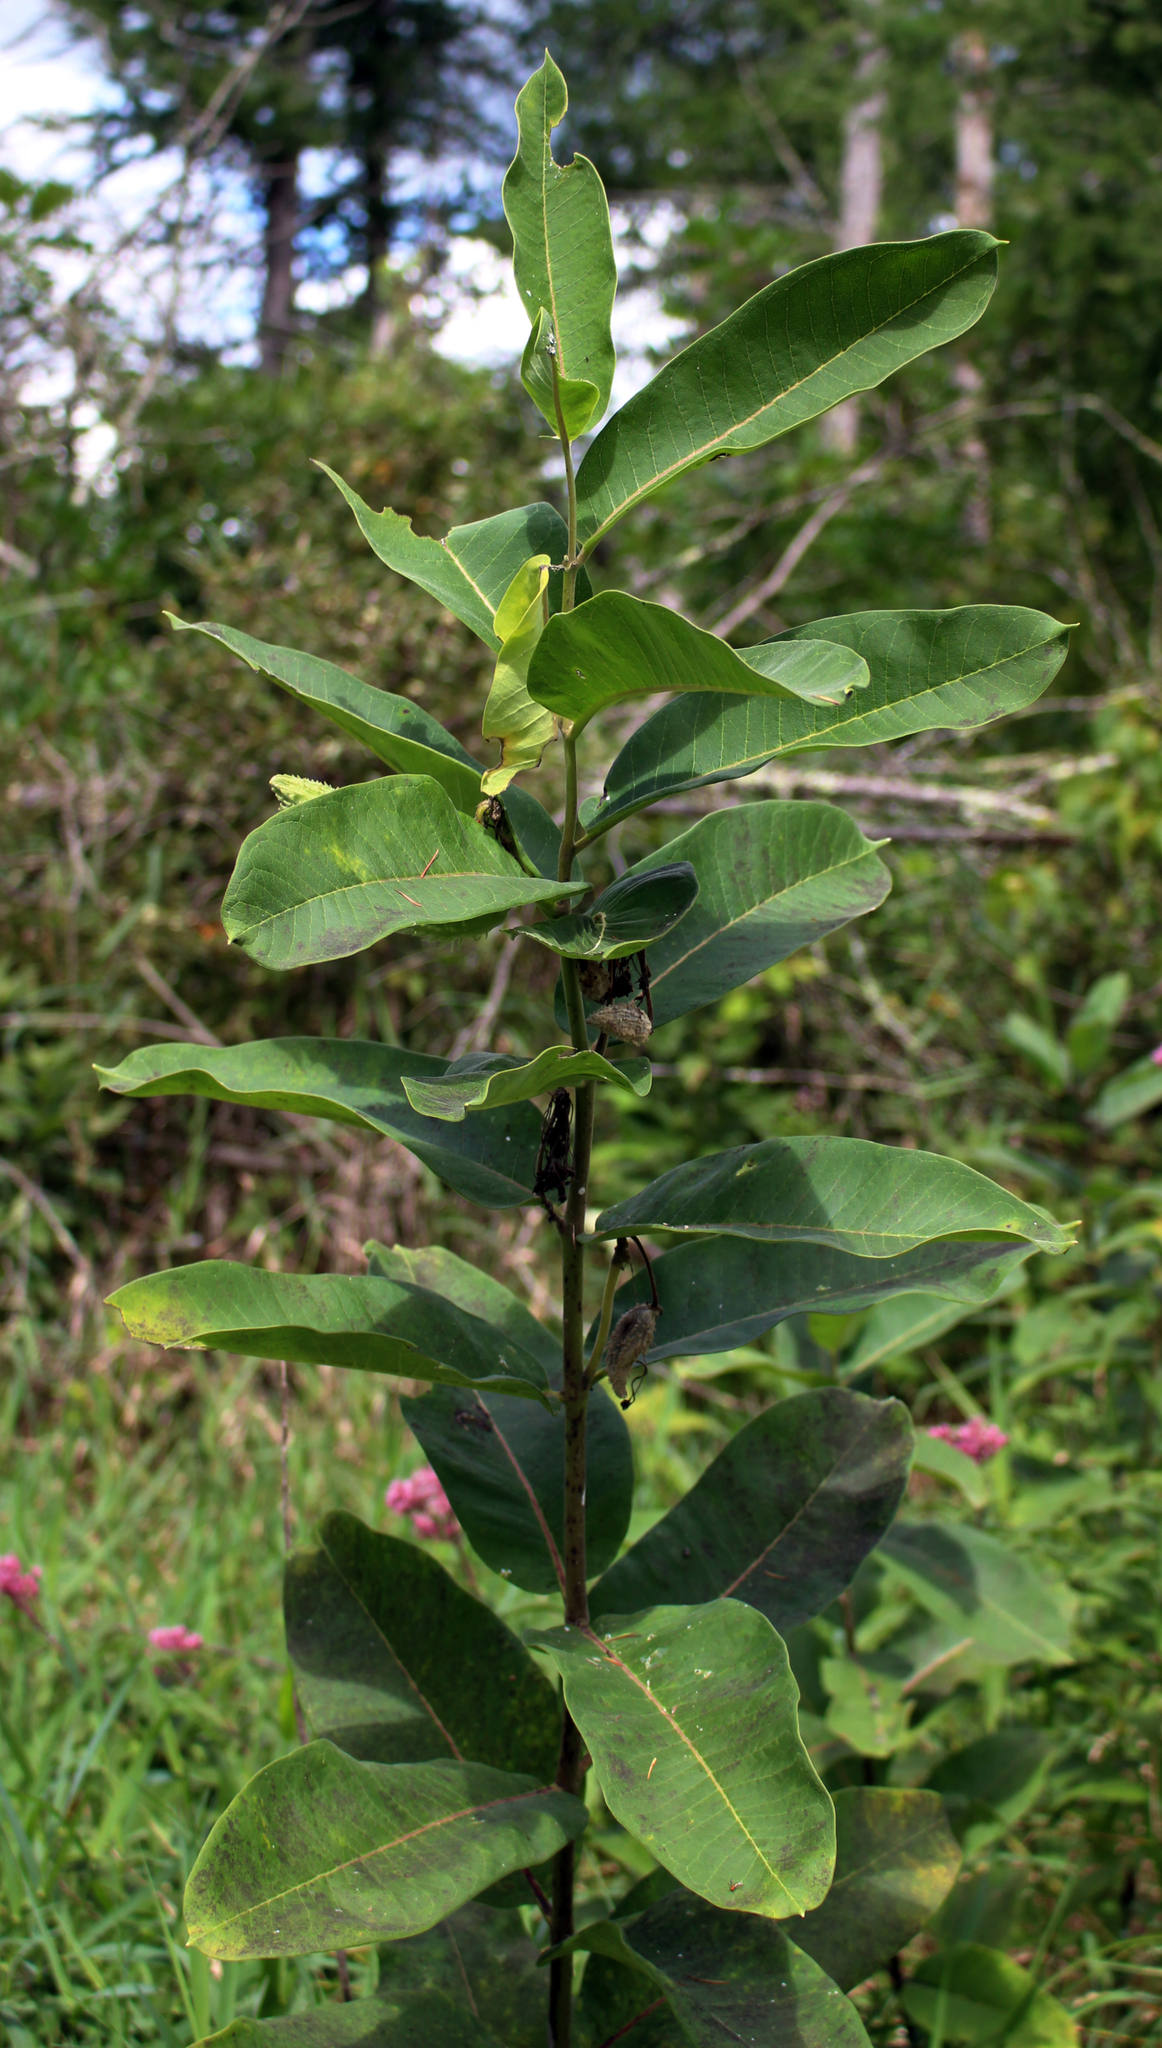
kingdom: Plantae
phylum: Tracheophyta
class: Magnoliopsida
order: Gentianales
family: Apocynaceae
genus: Asclepias
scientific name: Asclepias syriaca
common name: Common milkweed
